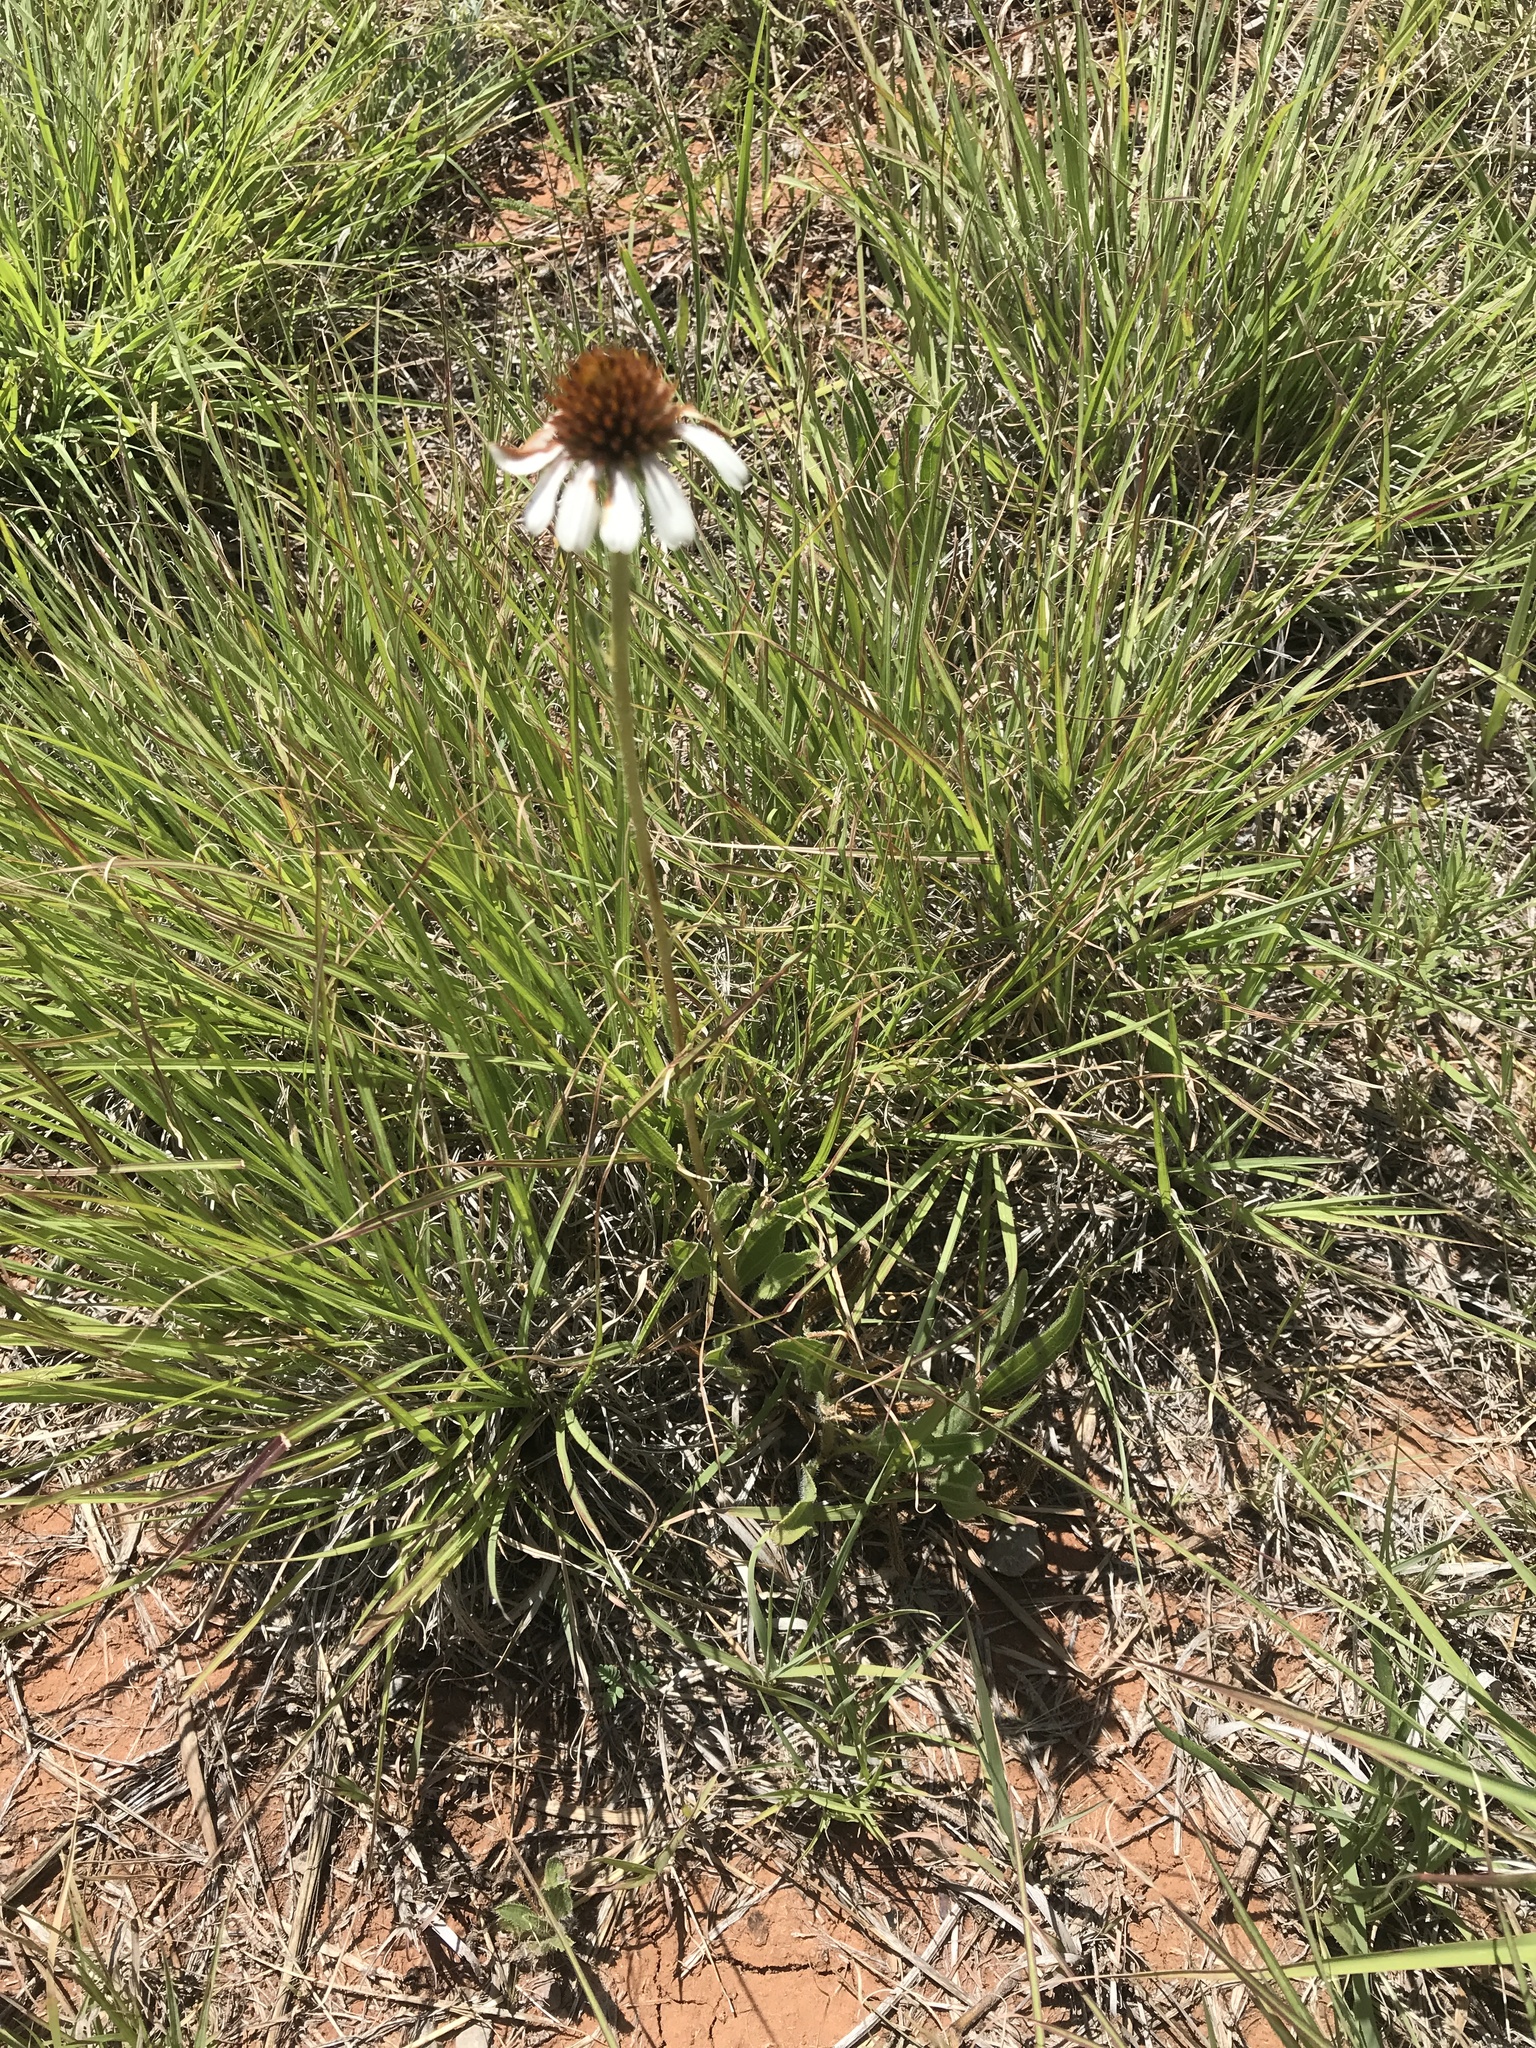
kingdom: Plantae
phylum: Tracheophyta
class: Magnoliopsida
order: Asterales
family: Asteraceae
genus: Echinacea
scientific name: Echinacea angustifolia
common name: Black-sampson echinacea
